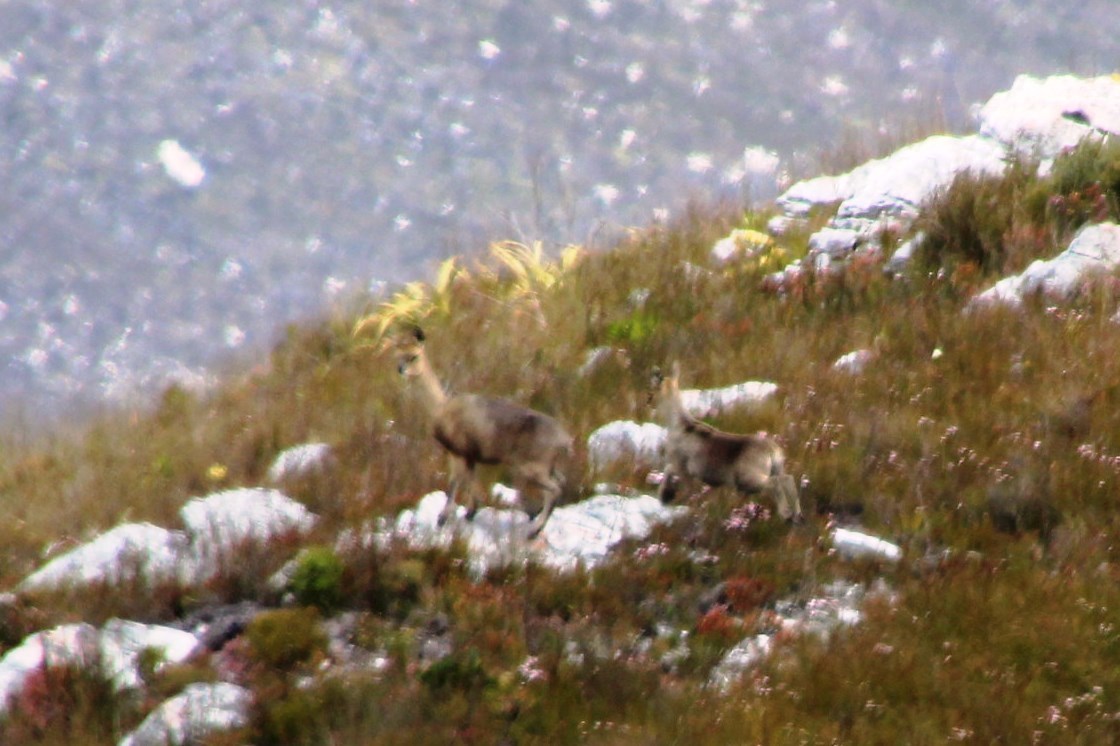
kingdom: Animalia
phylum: Chordata
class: Mammalia
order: Artiodactyla
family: Bovidae
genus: Oreotragus
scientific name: Oreotragus oreotragus
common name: Klipspringer
